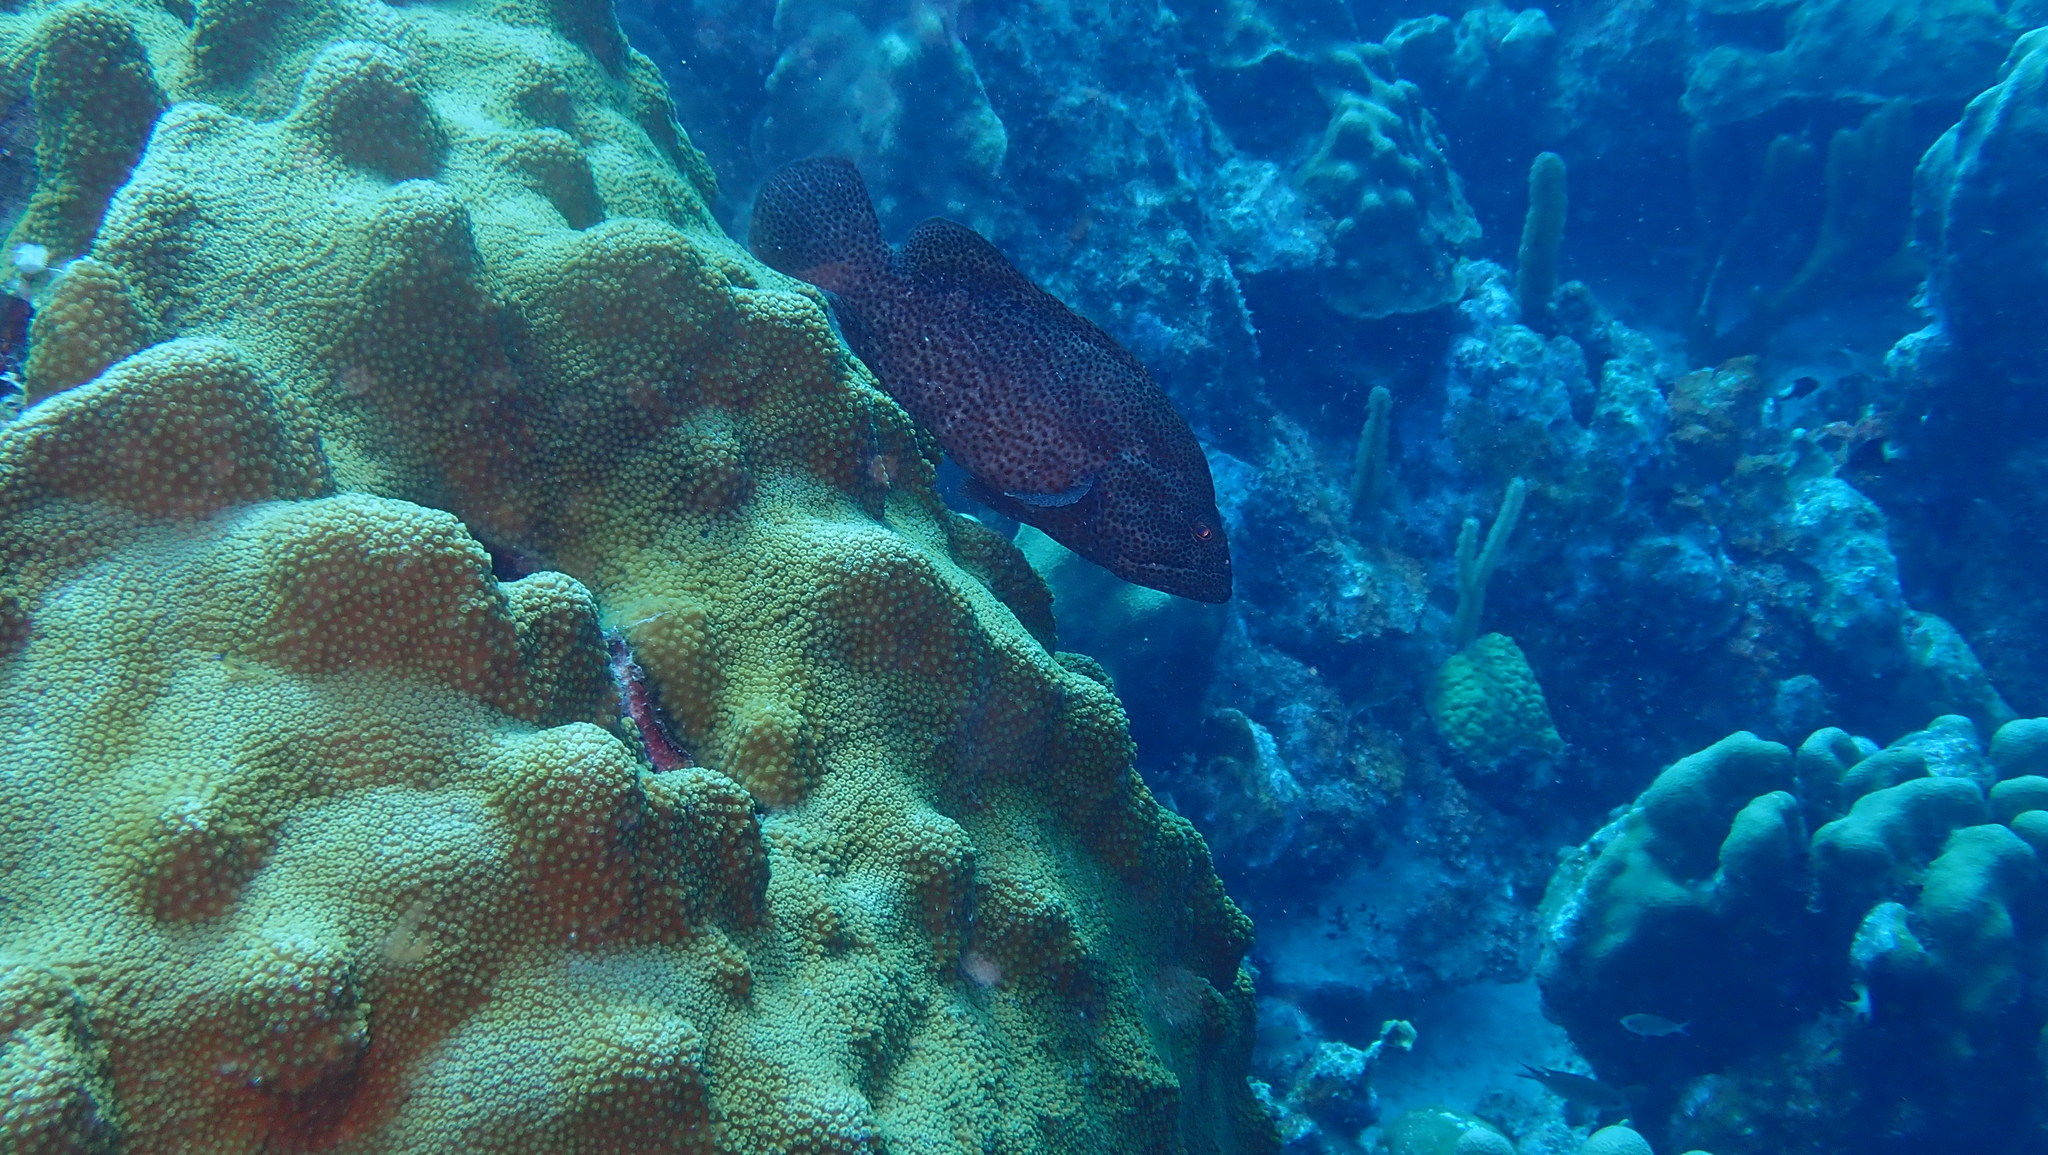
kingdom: Animalia
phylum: Chordata
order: Perciformes
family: Serranidae
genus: Cephalopholis
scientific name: Cephalopholis cruentata
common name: Graysby
